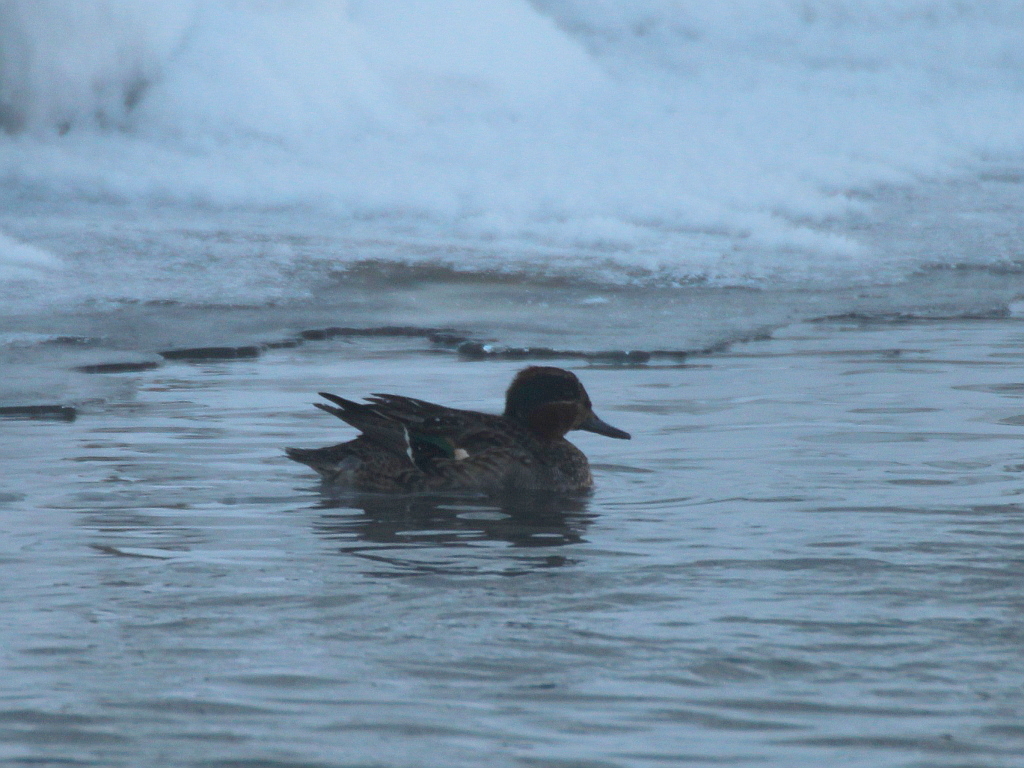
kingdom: Animalia
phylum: Chordata
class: Aves
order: Anseriformes
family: Anatidae
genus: Anas
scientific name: Anas crecca
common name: Eurasian teal
